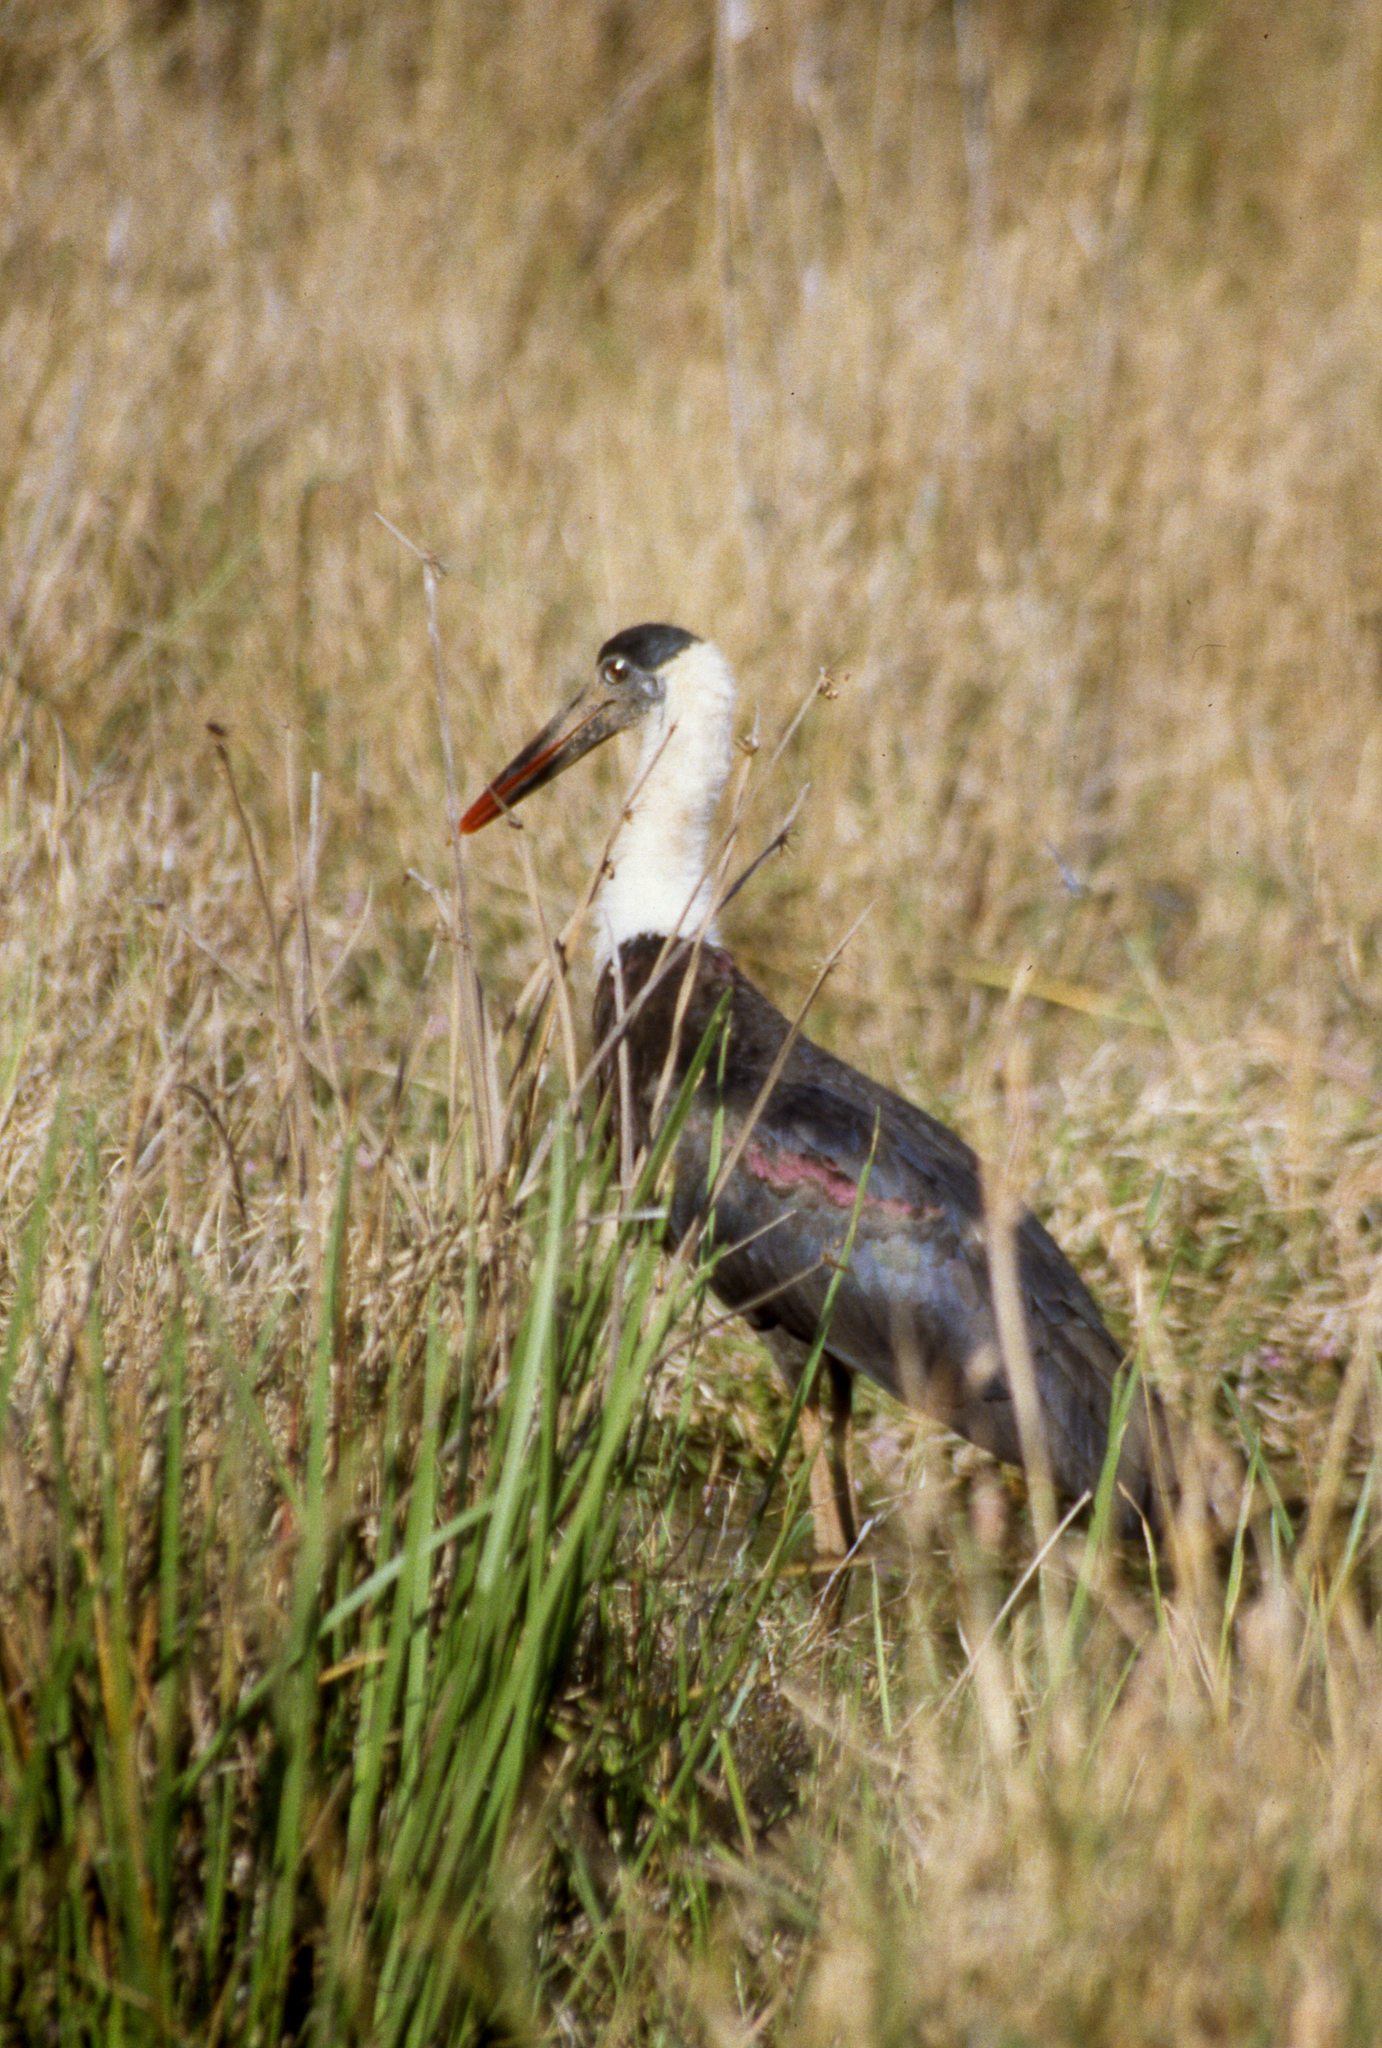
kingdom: Animalia
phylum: Chordata
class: Aves
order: Ciconiiformes
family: Ciconiidae
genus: Ciconia
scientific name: Ciconia episcopus
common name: Woolly-necked stork
